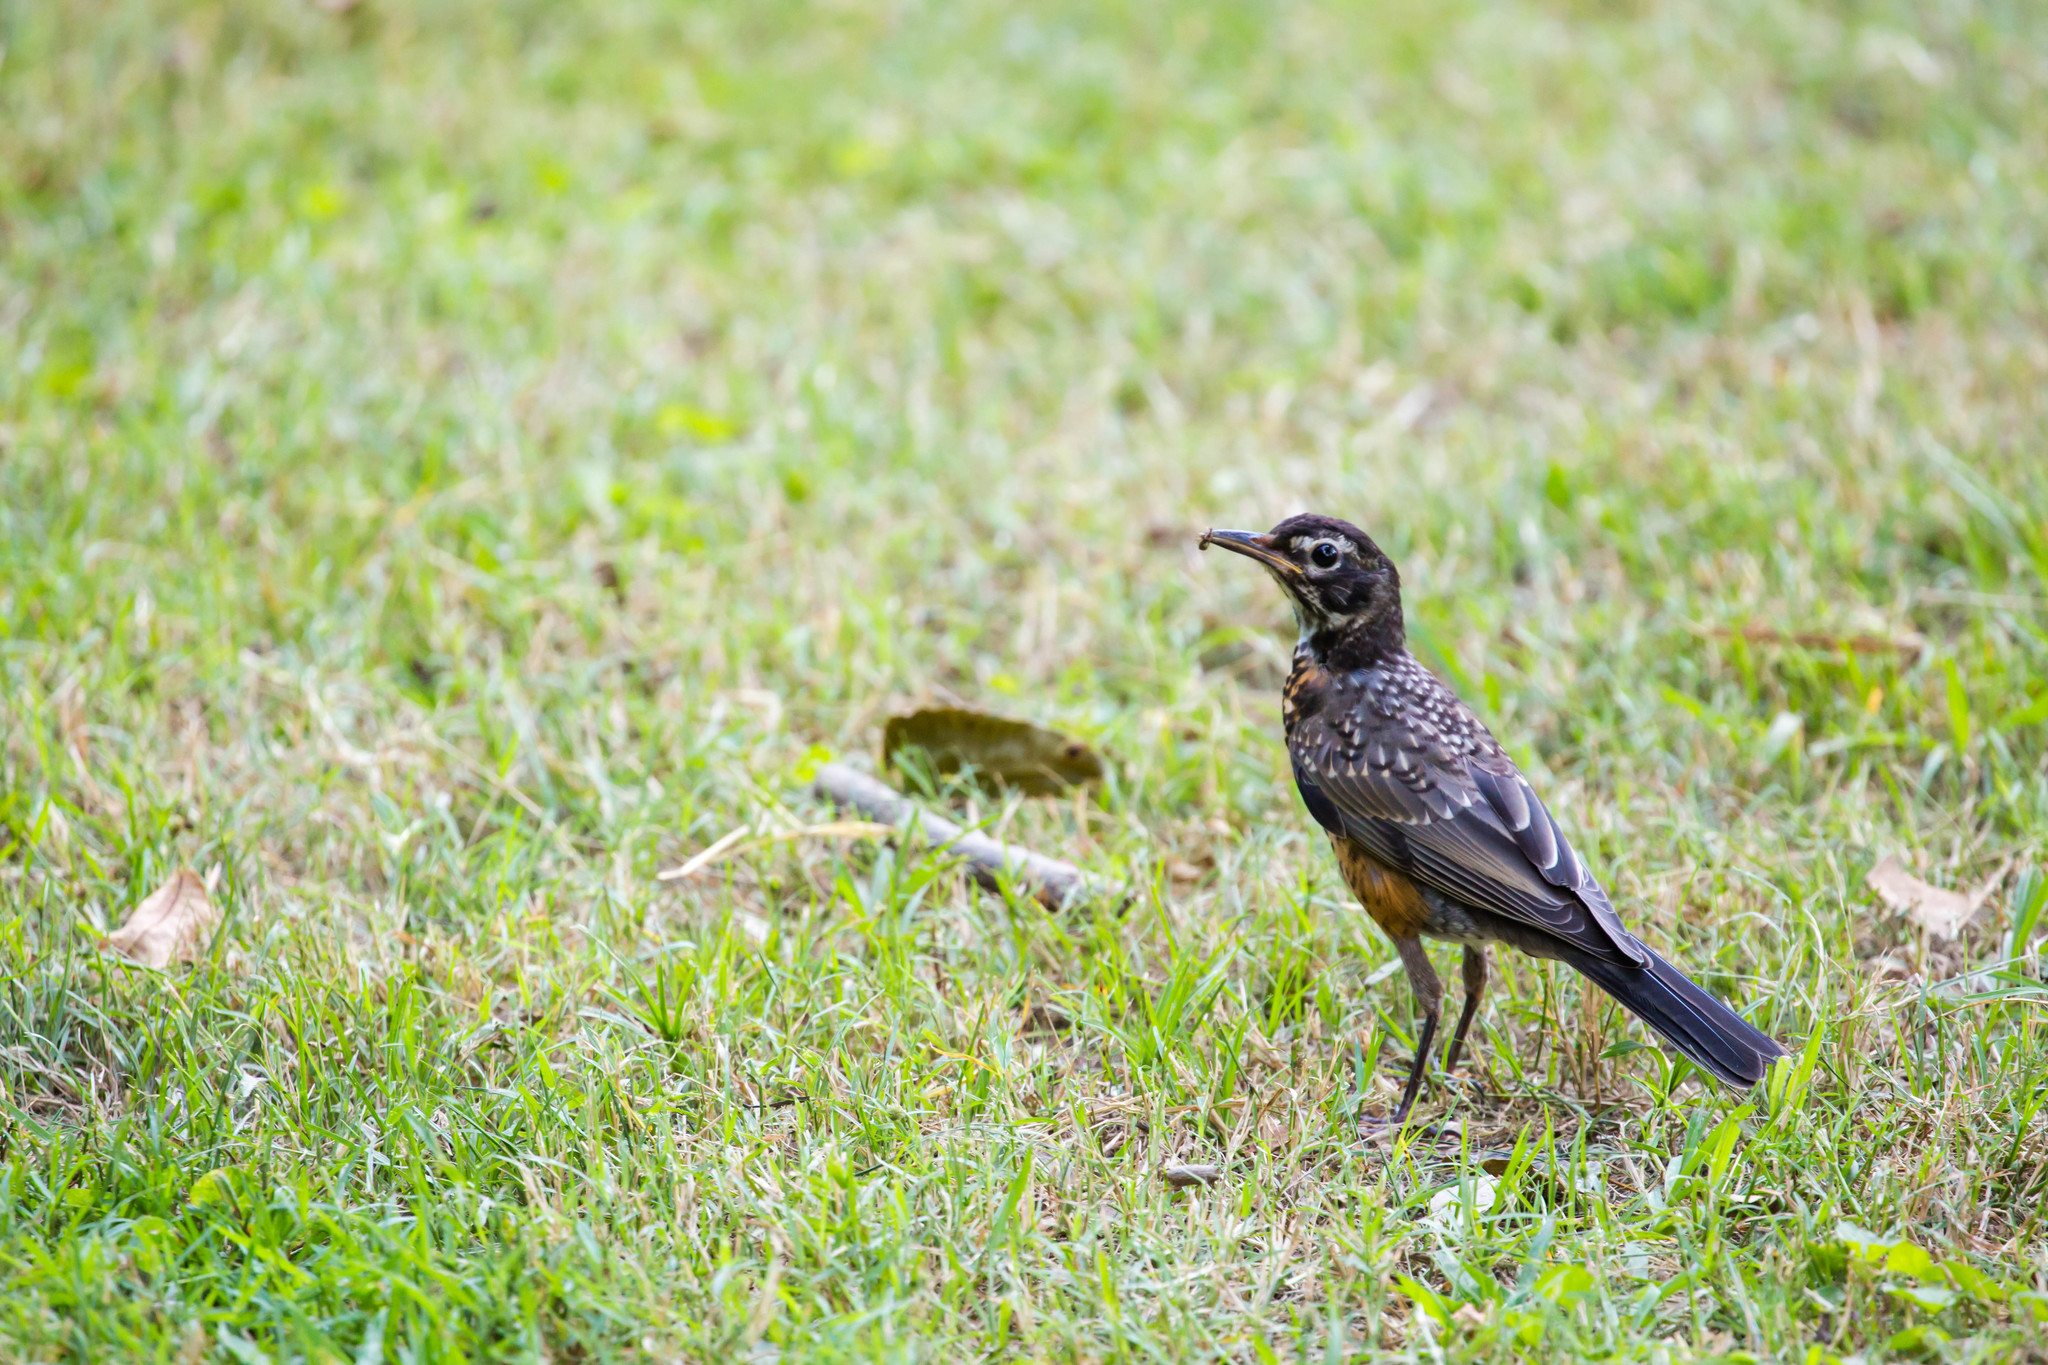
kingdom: Animalia
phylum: Chordata
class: Aves
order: Passeriformes
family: Turdidae
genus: Turdus
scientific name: Turdus migratorius
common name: American robin
